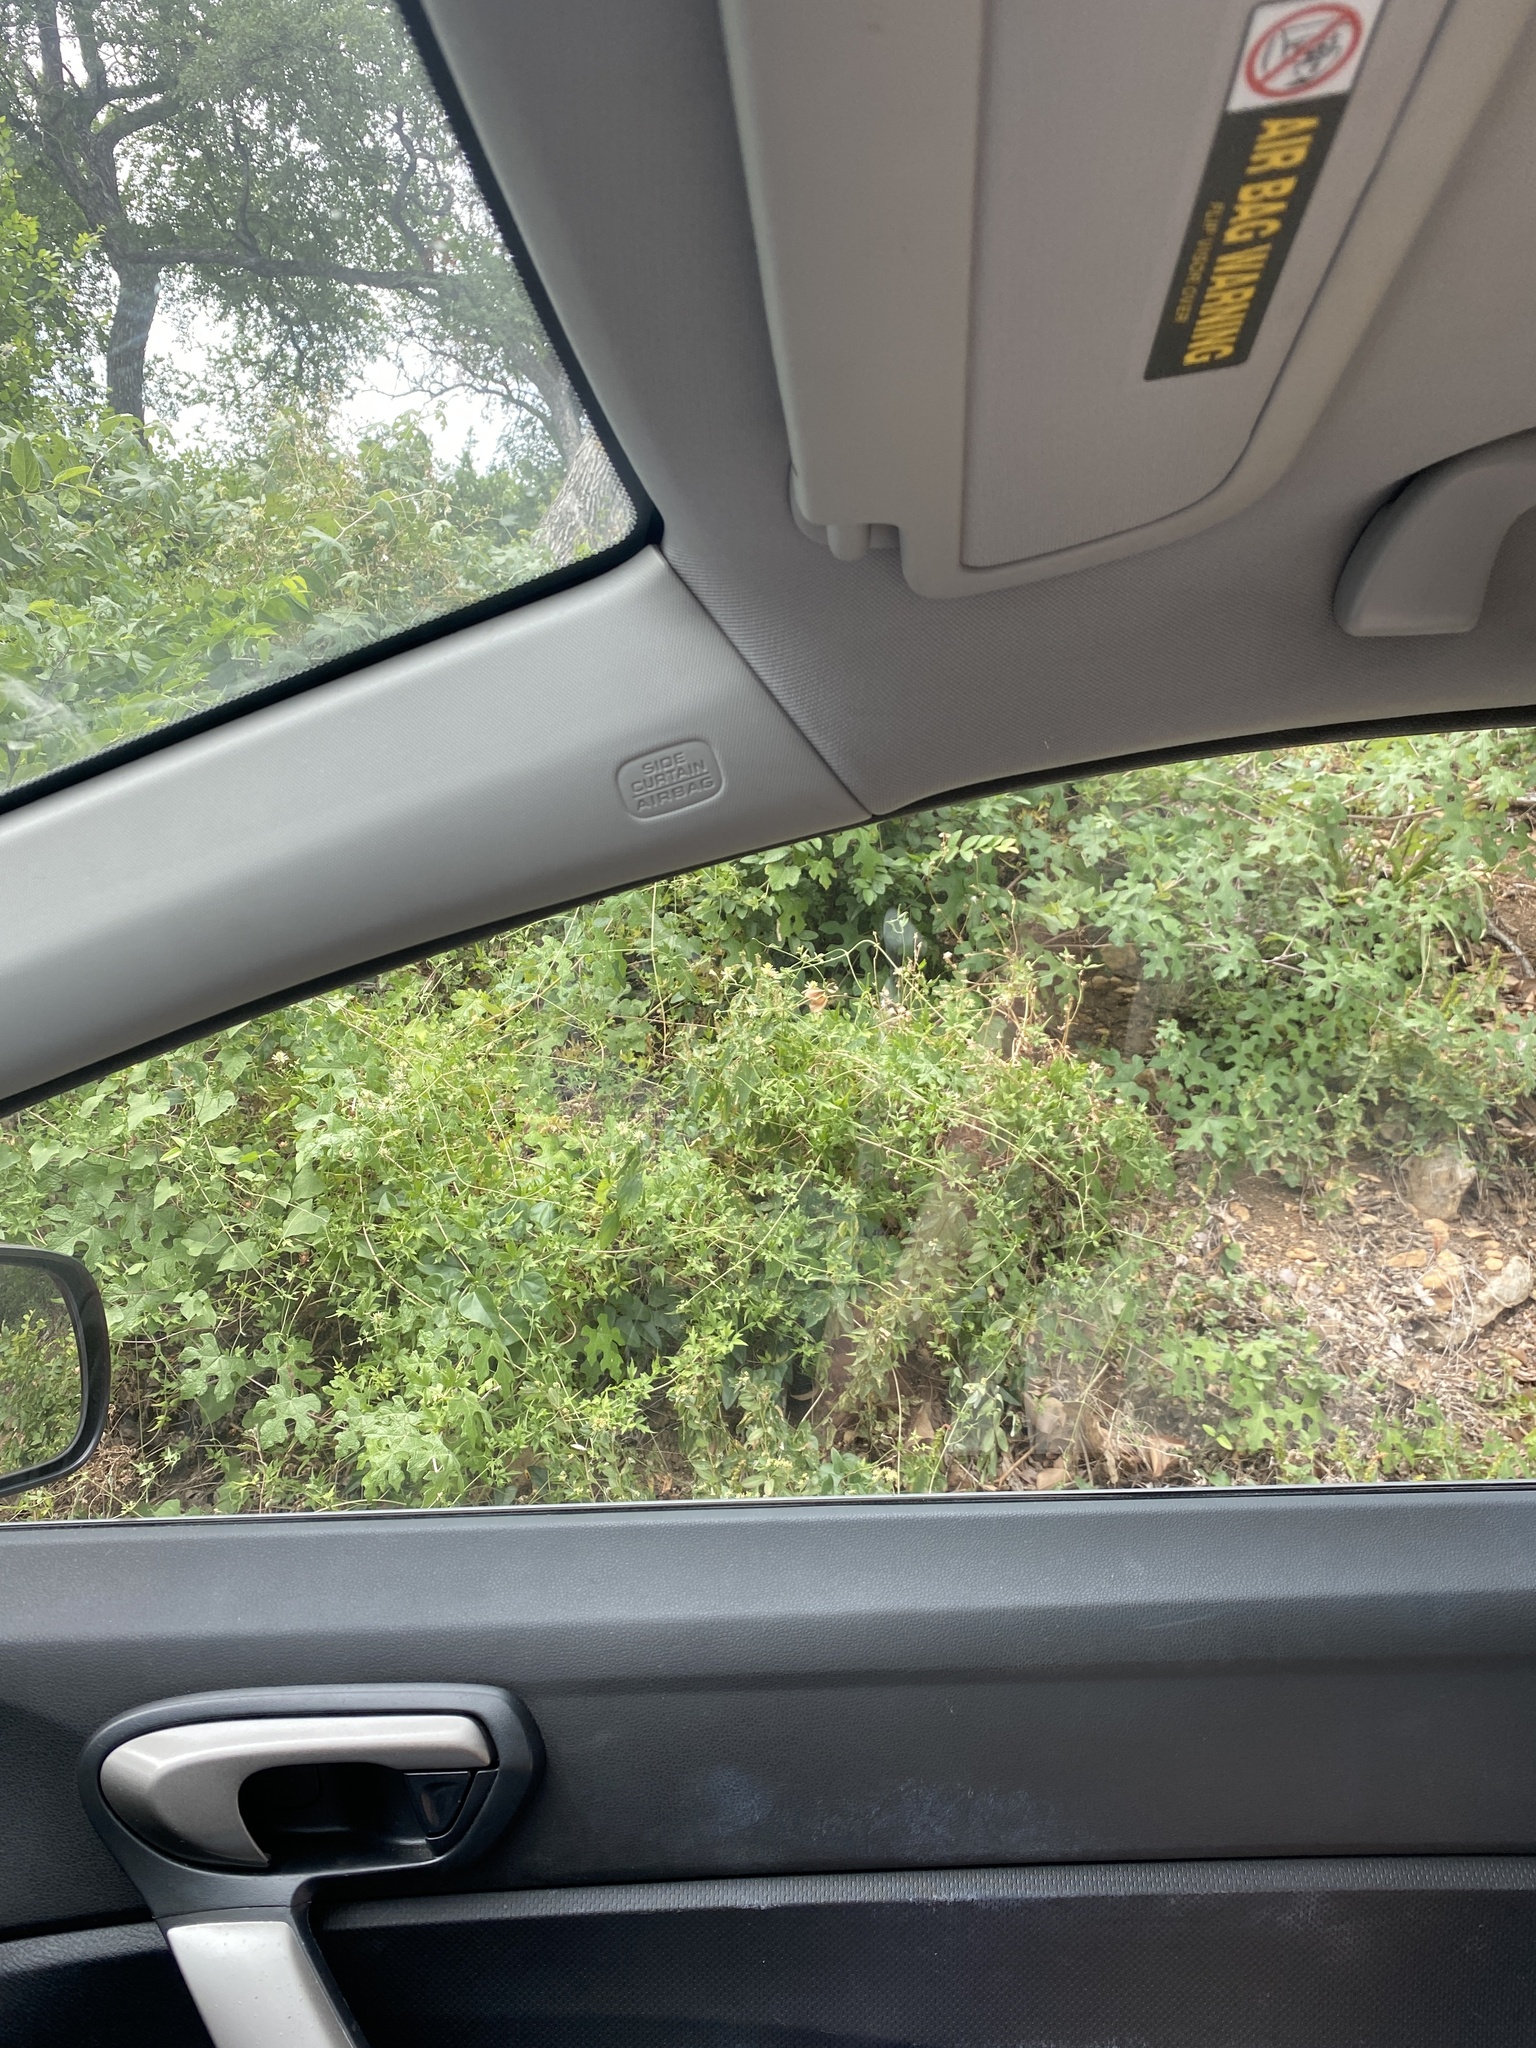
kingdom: Plantae
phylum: Tracheophyta
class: Magnoliopsida
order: Ranunculales
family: Ranunculaceae
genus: Clematis
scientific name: Clematis drummondii
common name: Texas virgin's bower
